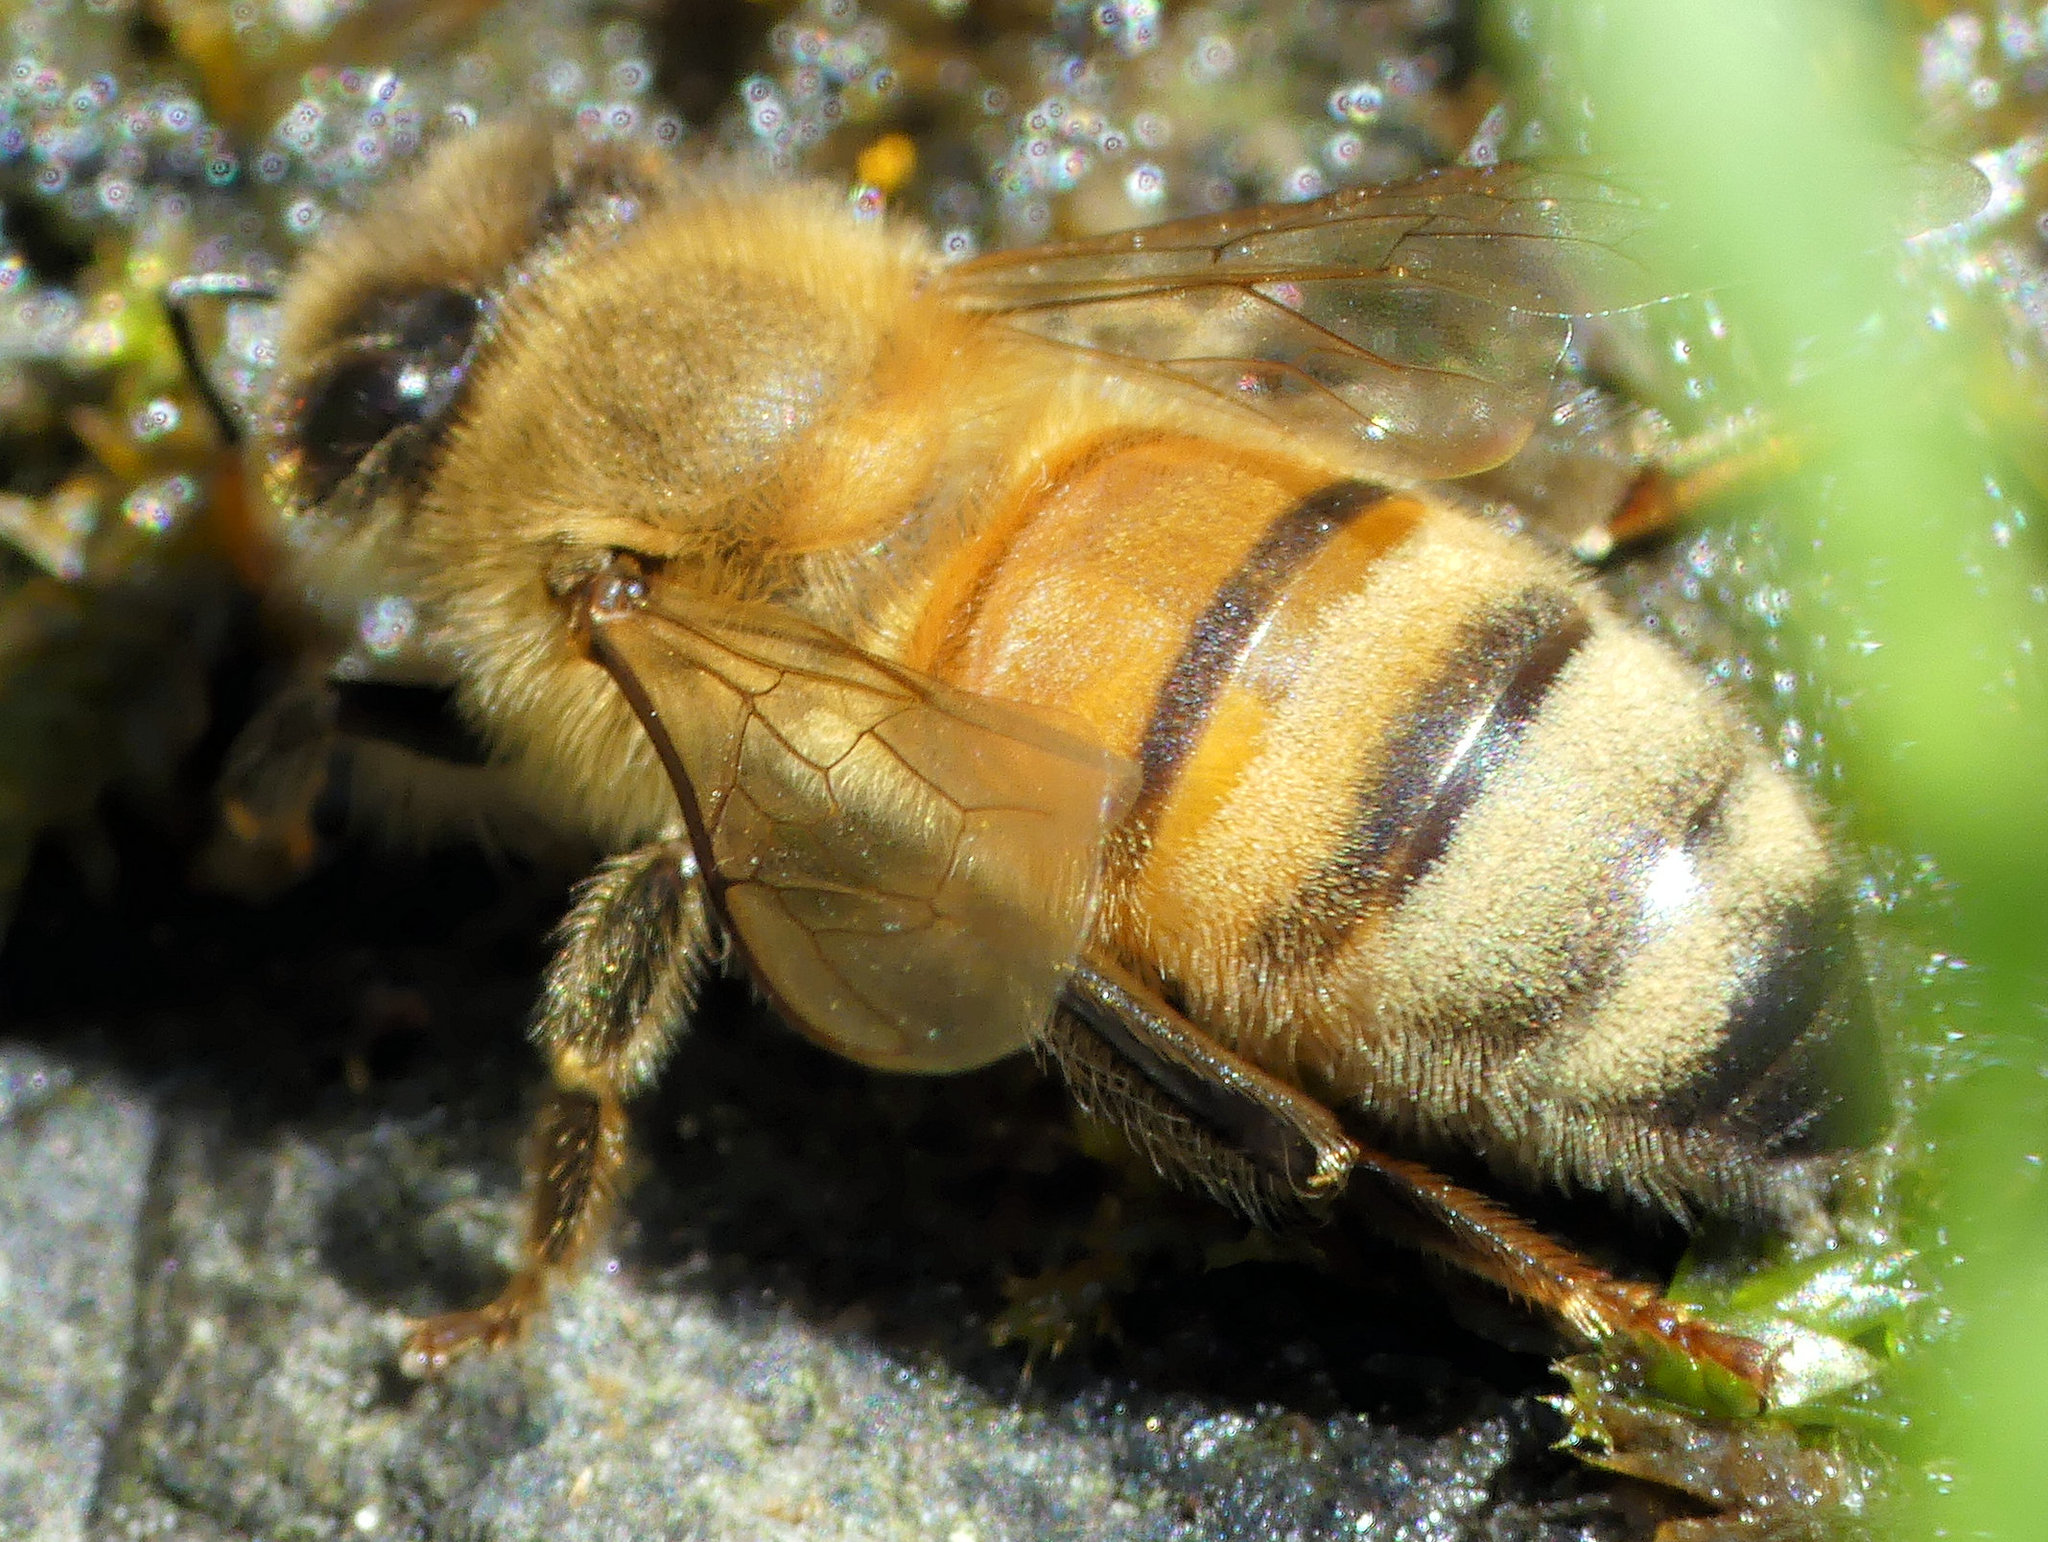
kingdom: Animalia
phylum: Arthropoda
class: Insecta
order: Hymenoptera
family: Apidae
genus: Apis
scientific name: Apis mellifera
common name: Honey bee
